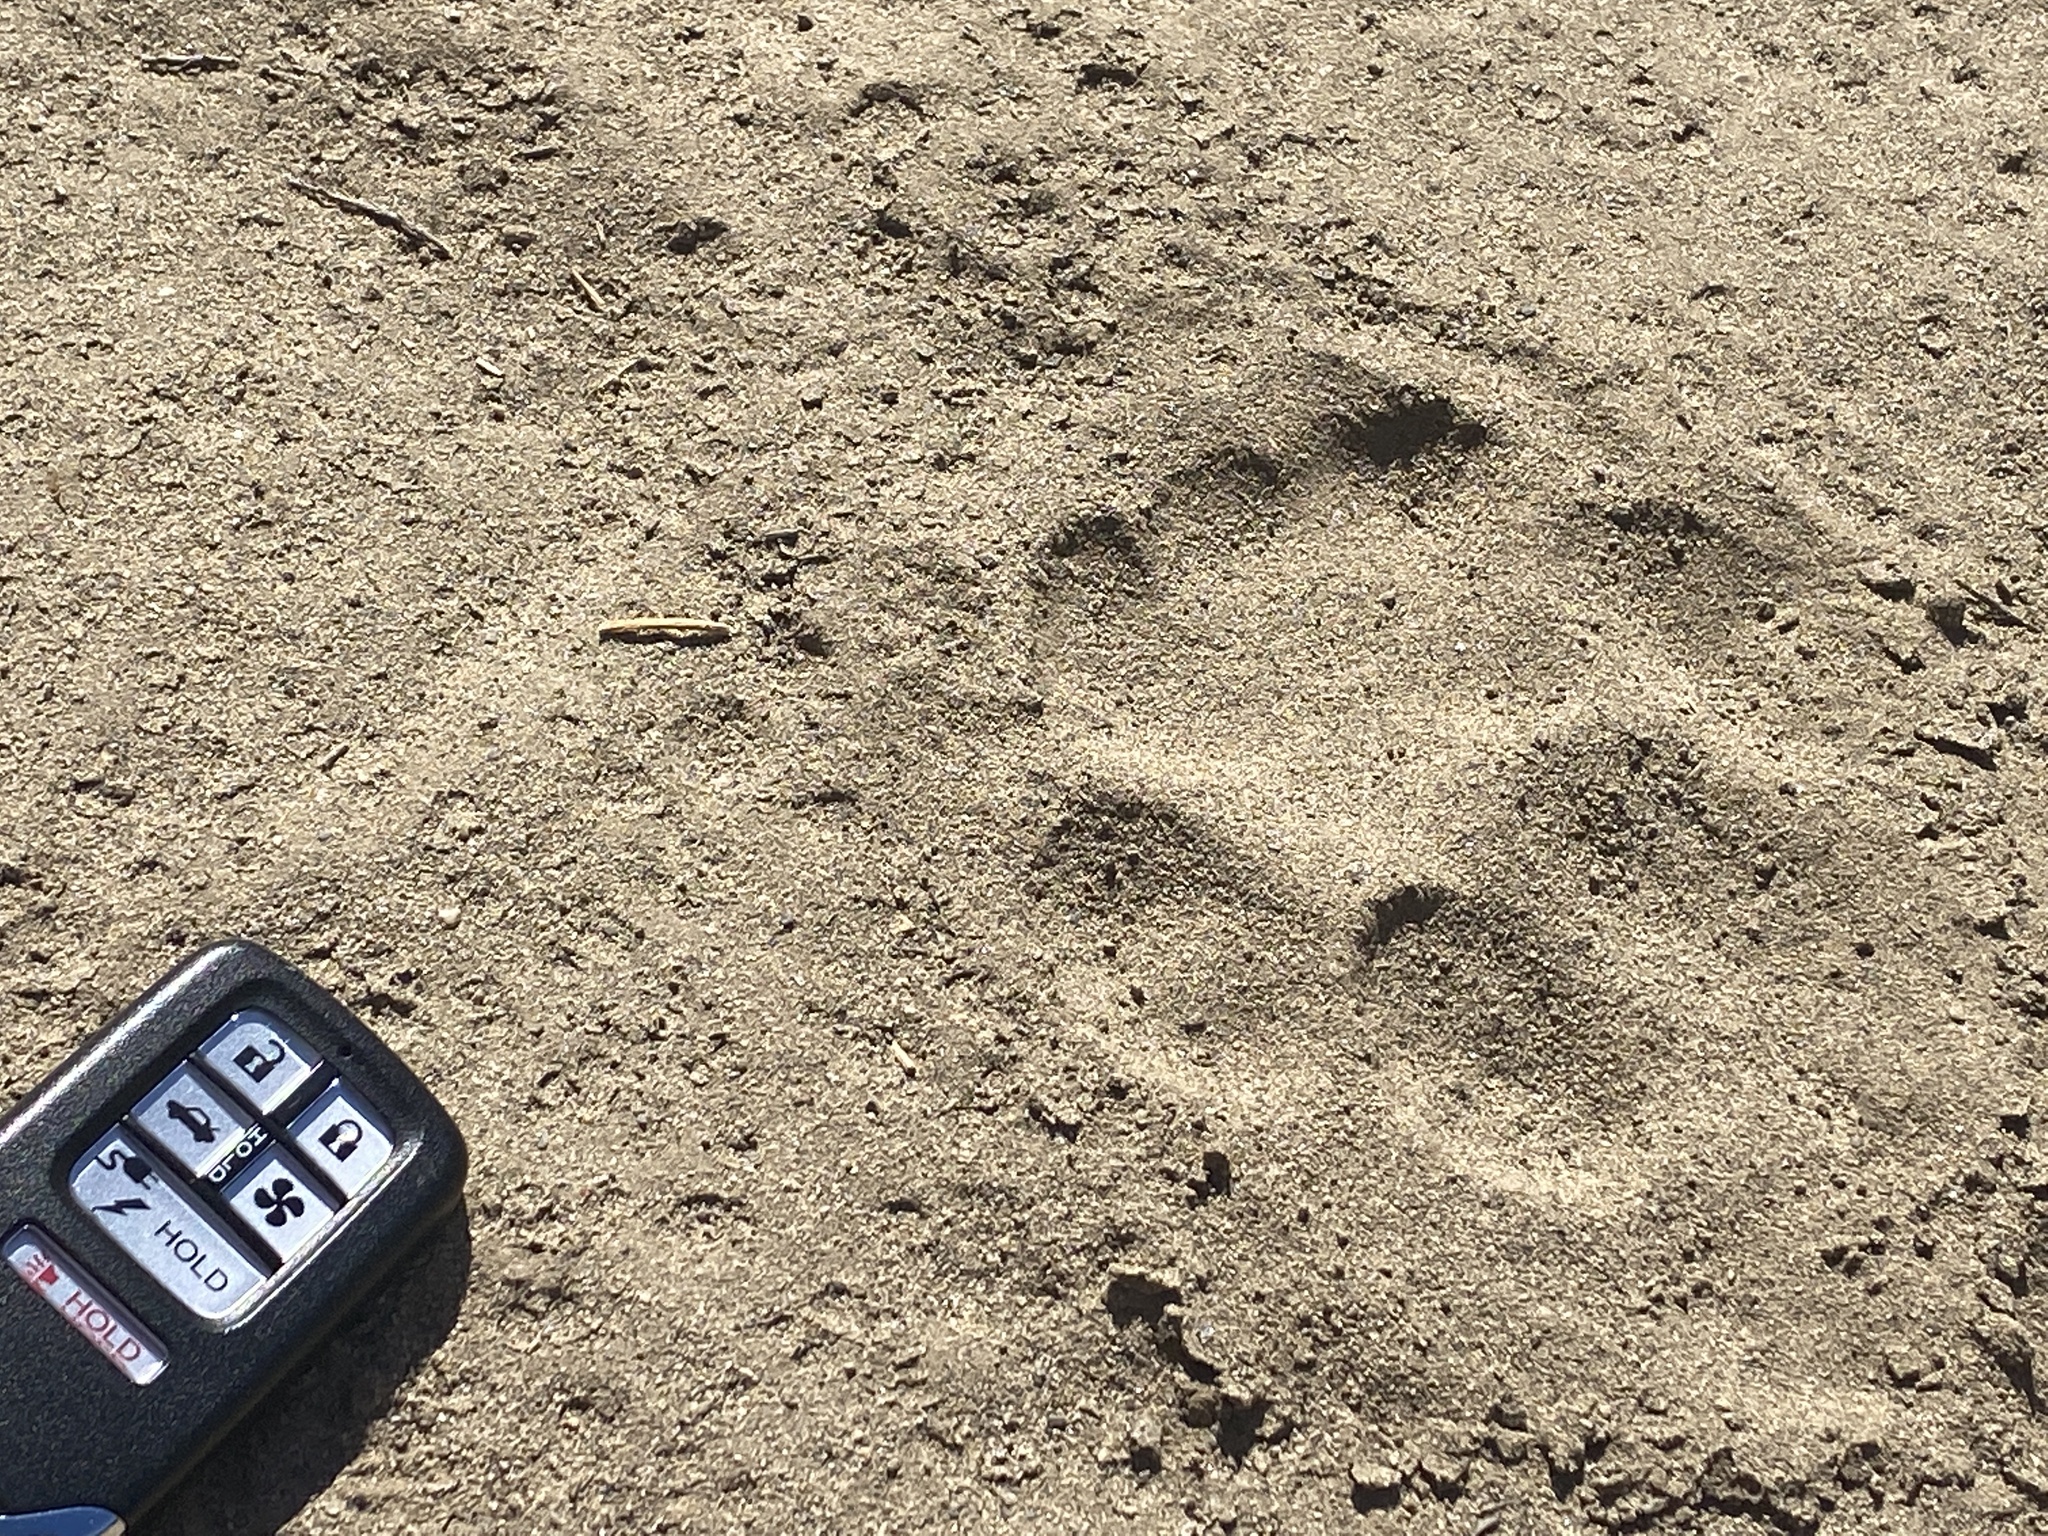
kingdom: Animalia
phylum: Chordata
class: Mammalia
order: Carnivora
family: Felidae
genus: Puma
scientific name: Puma concolor
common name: Puma
